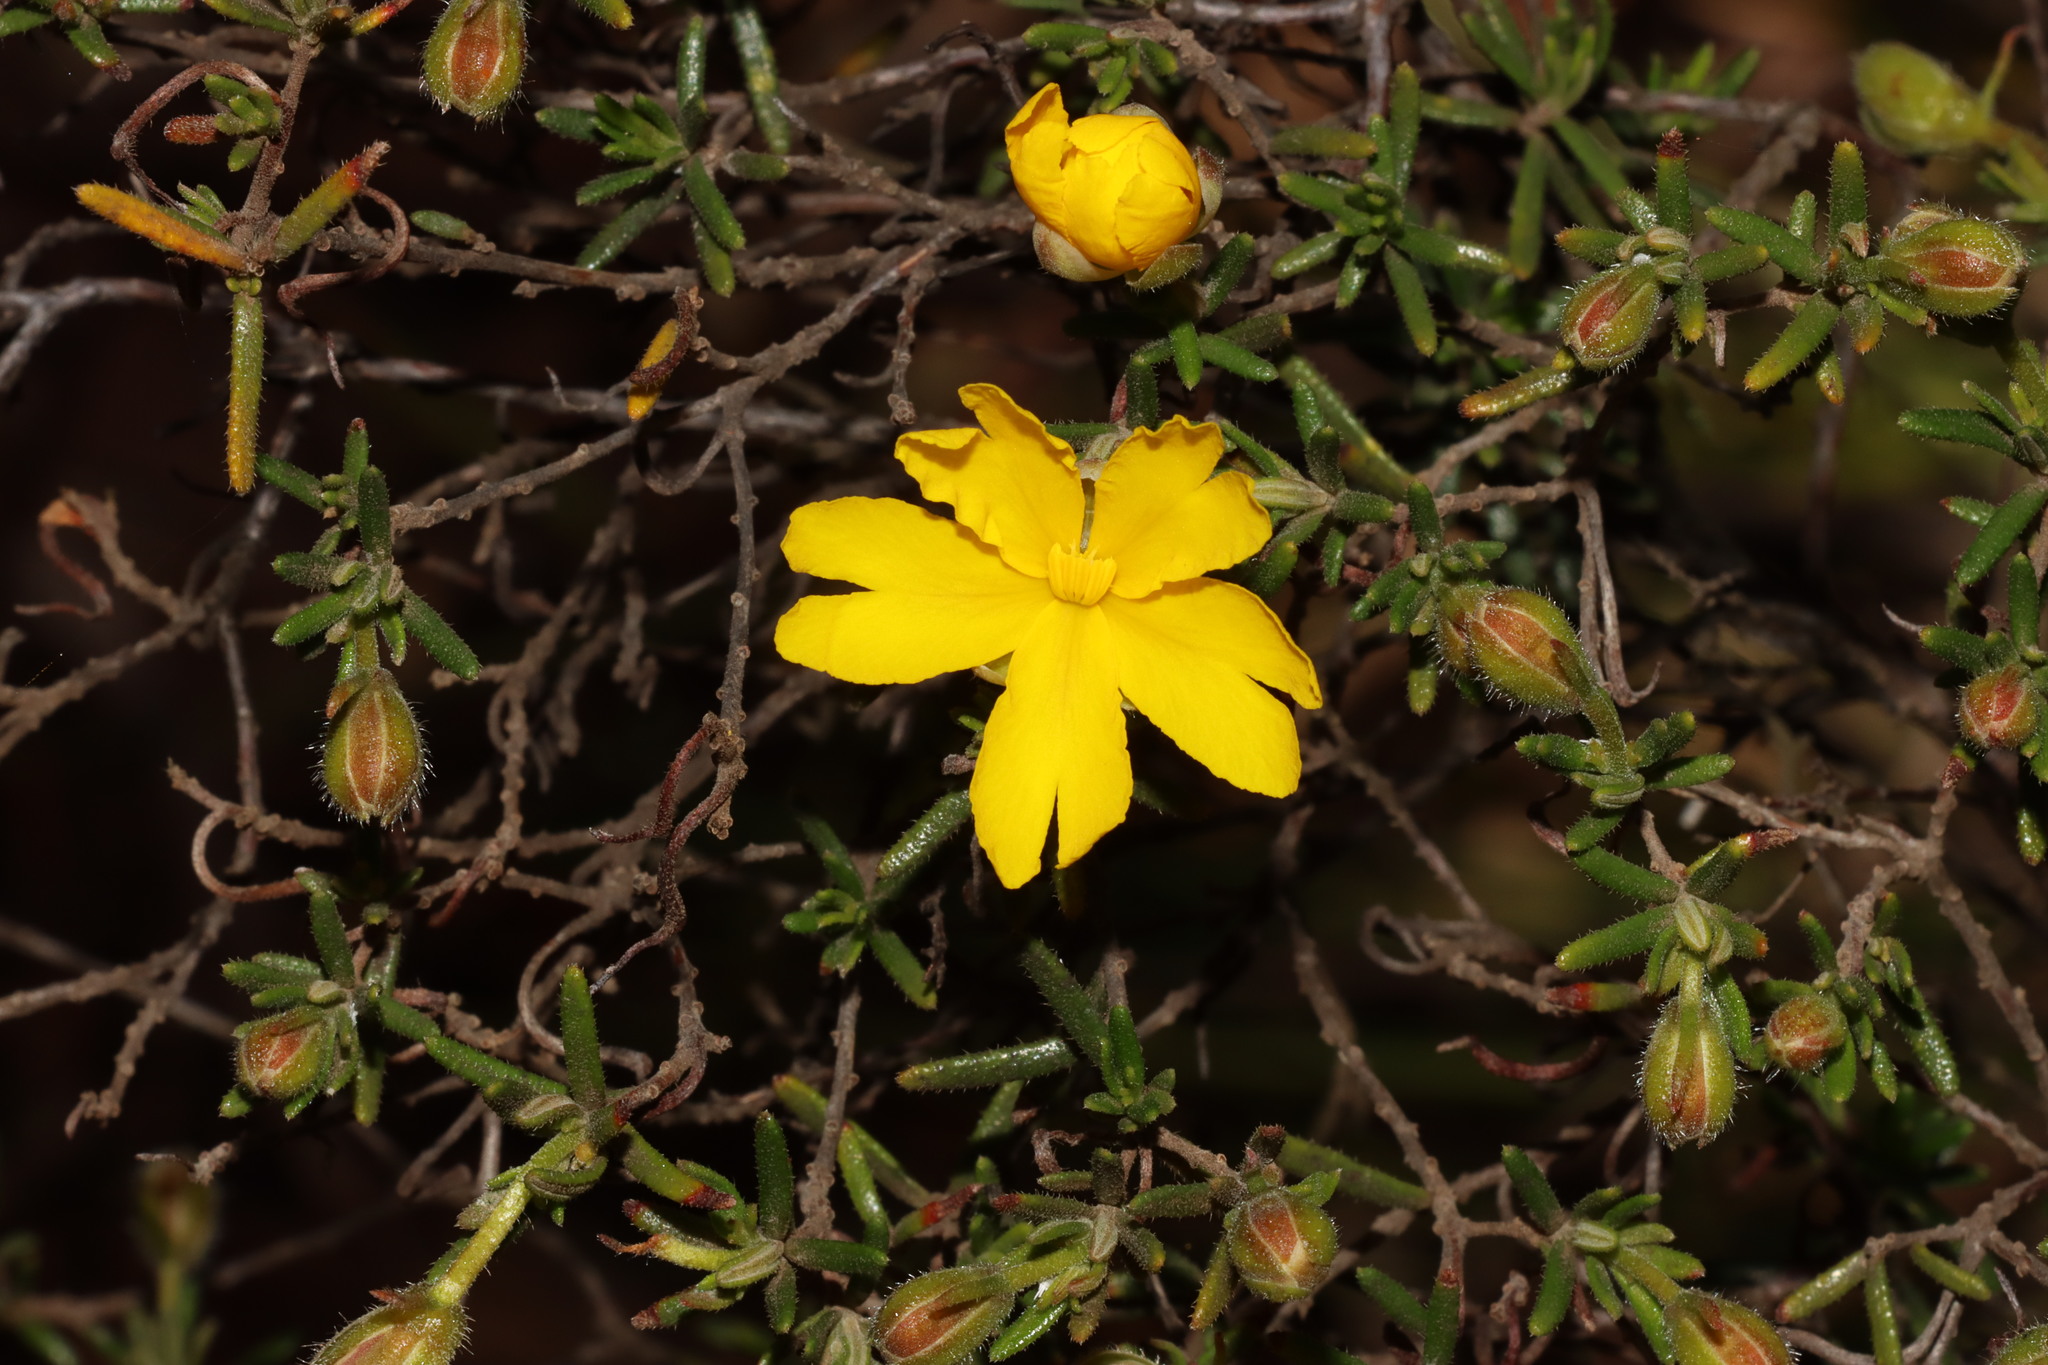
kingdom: Plantae
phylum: Tracheophyta
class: Magnoliopsida
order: Dilleniales
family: Dilleniaceae
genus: Hibbertia
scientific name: Hibbertia hypericoides
